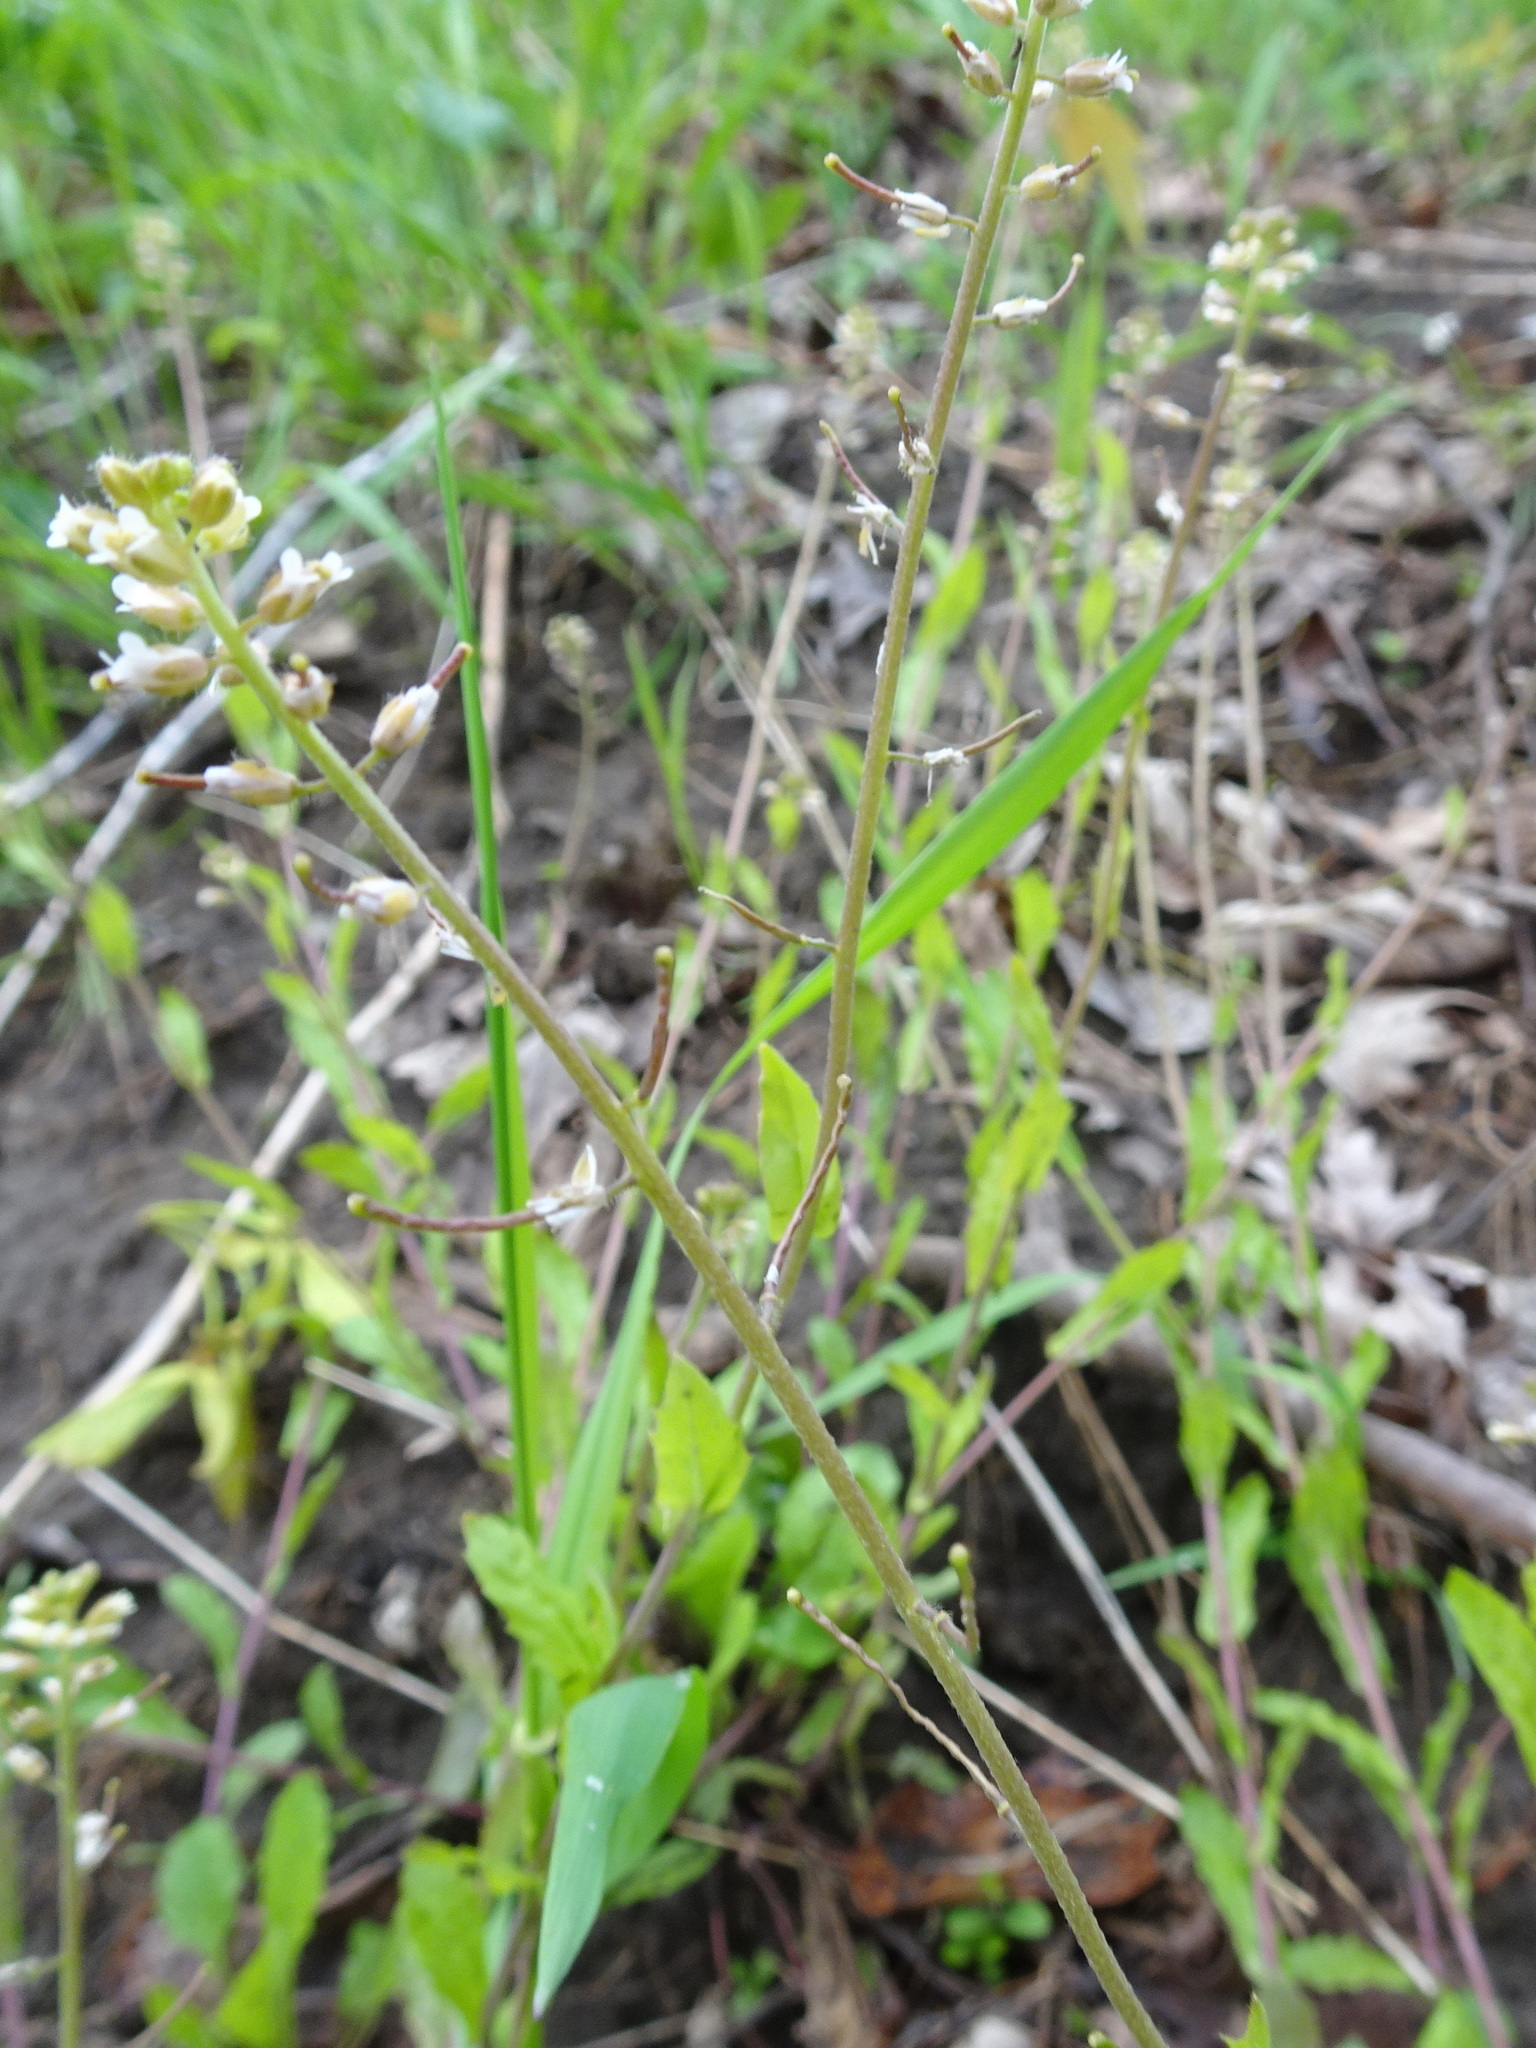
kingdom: Plantae
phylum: Tracheophyta
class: Magnoliopsida
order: Brassicales
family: Brassicaceae
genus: Borodinia
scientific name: Borodinia dentata
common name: Short's rockcress
